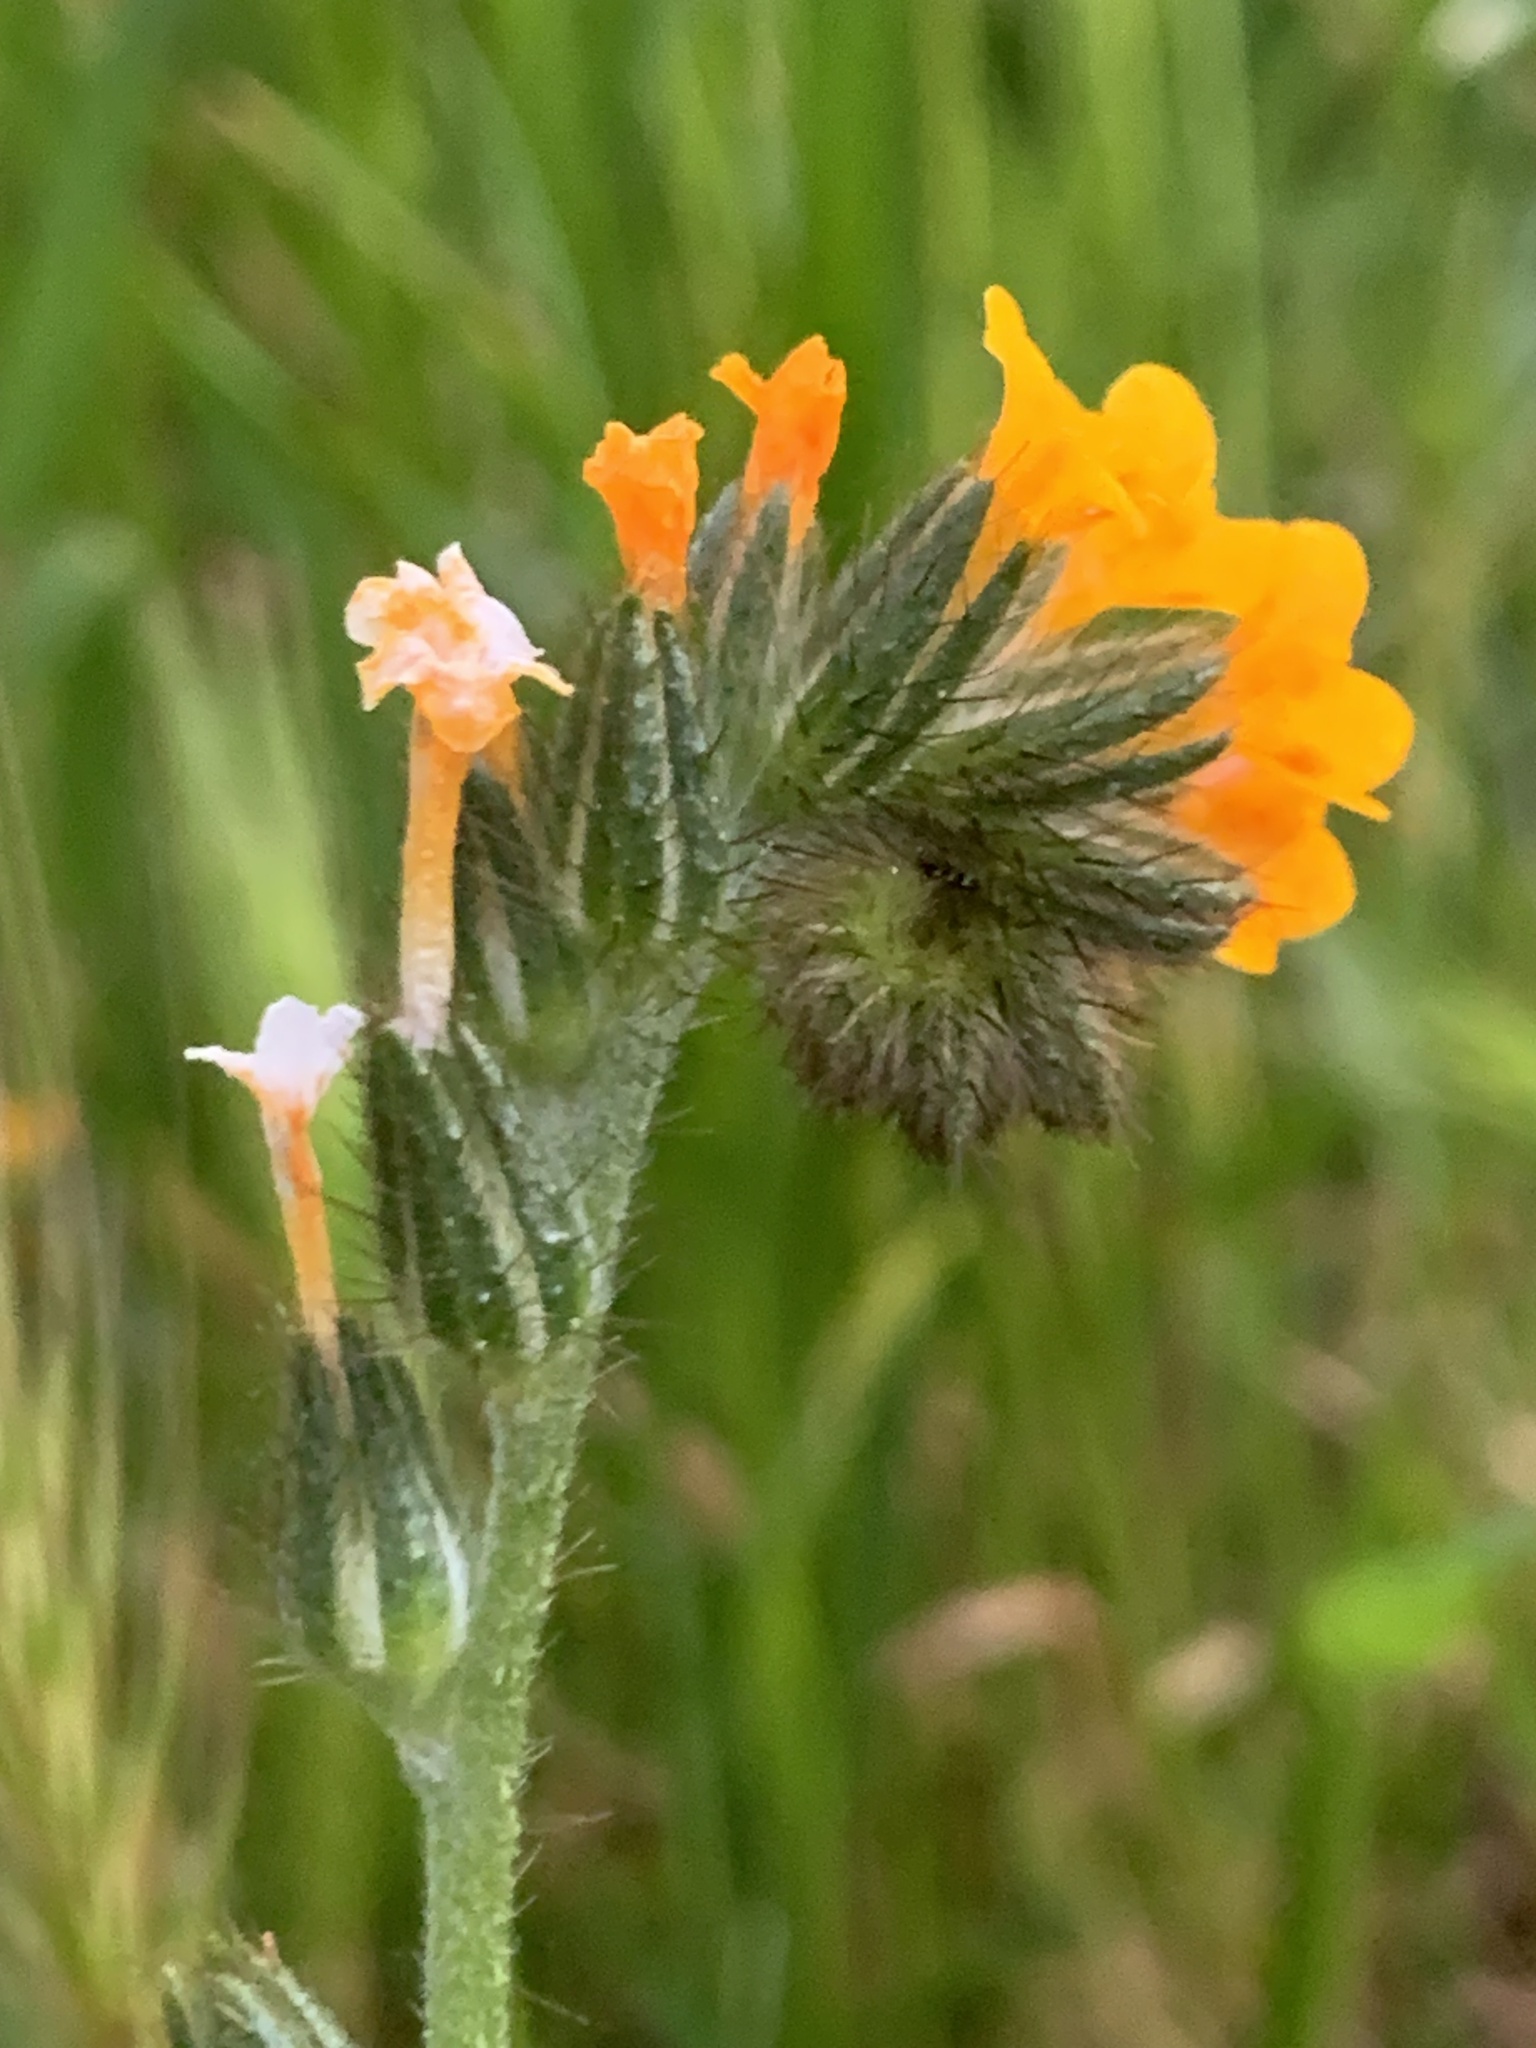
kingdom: Plantae
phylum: Tracheophyta
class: Magnoliopsida
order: Boraginales
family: Boraginaceae
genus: Amsinckia
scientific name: Amsinckia menziesii
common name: Menzies' fiddleneck
